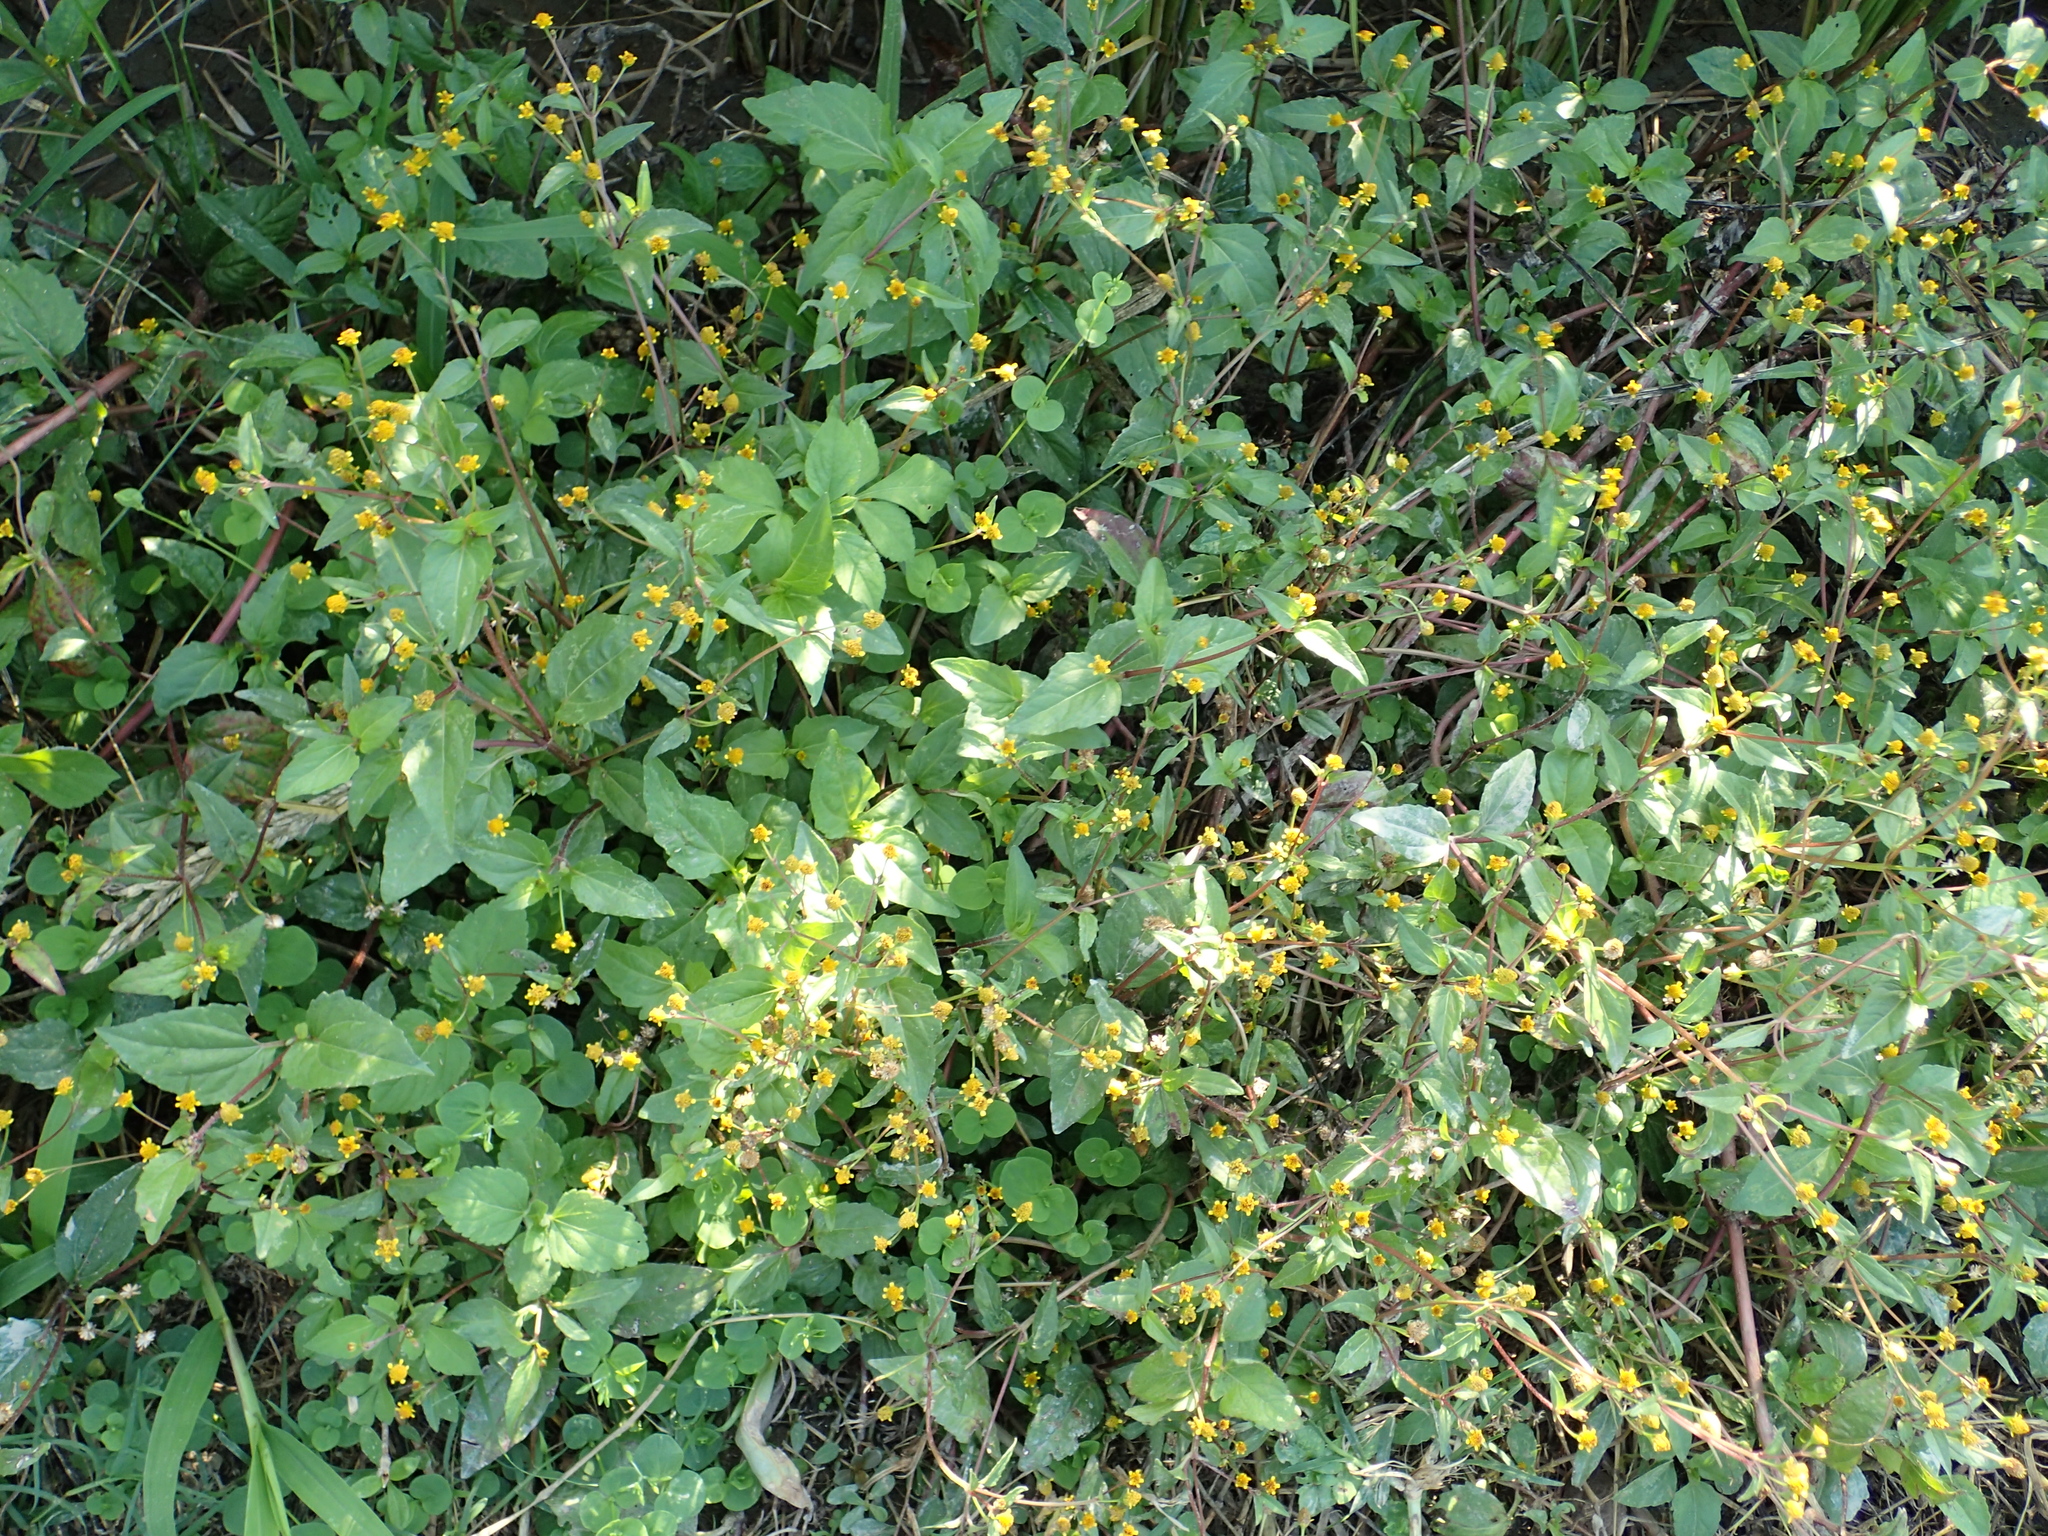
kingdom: Plantae
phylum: Tracheophyta
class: Magnoliopsida
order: Asterales
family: Asteraceae
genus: Acmella
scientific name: Acmella uliginosa
